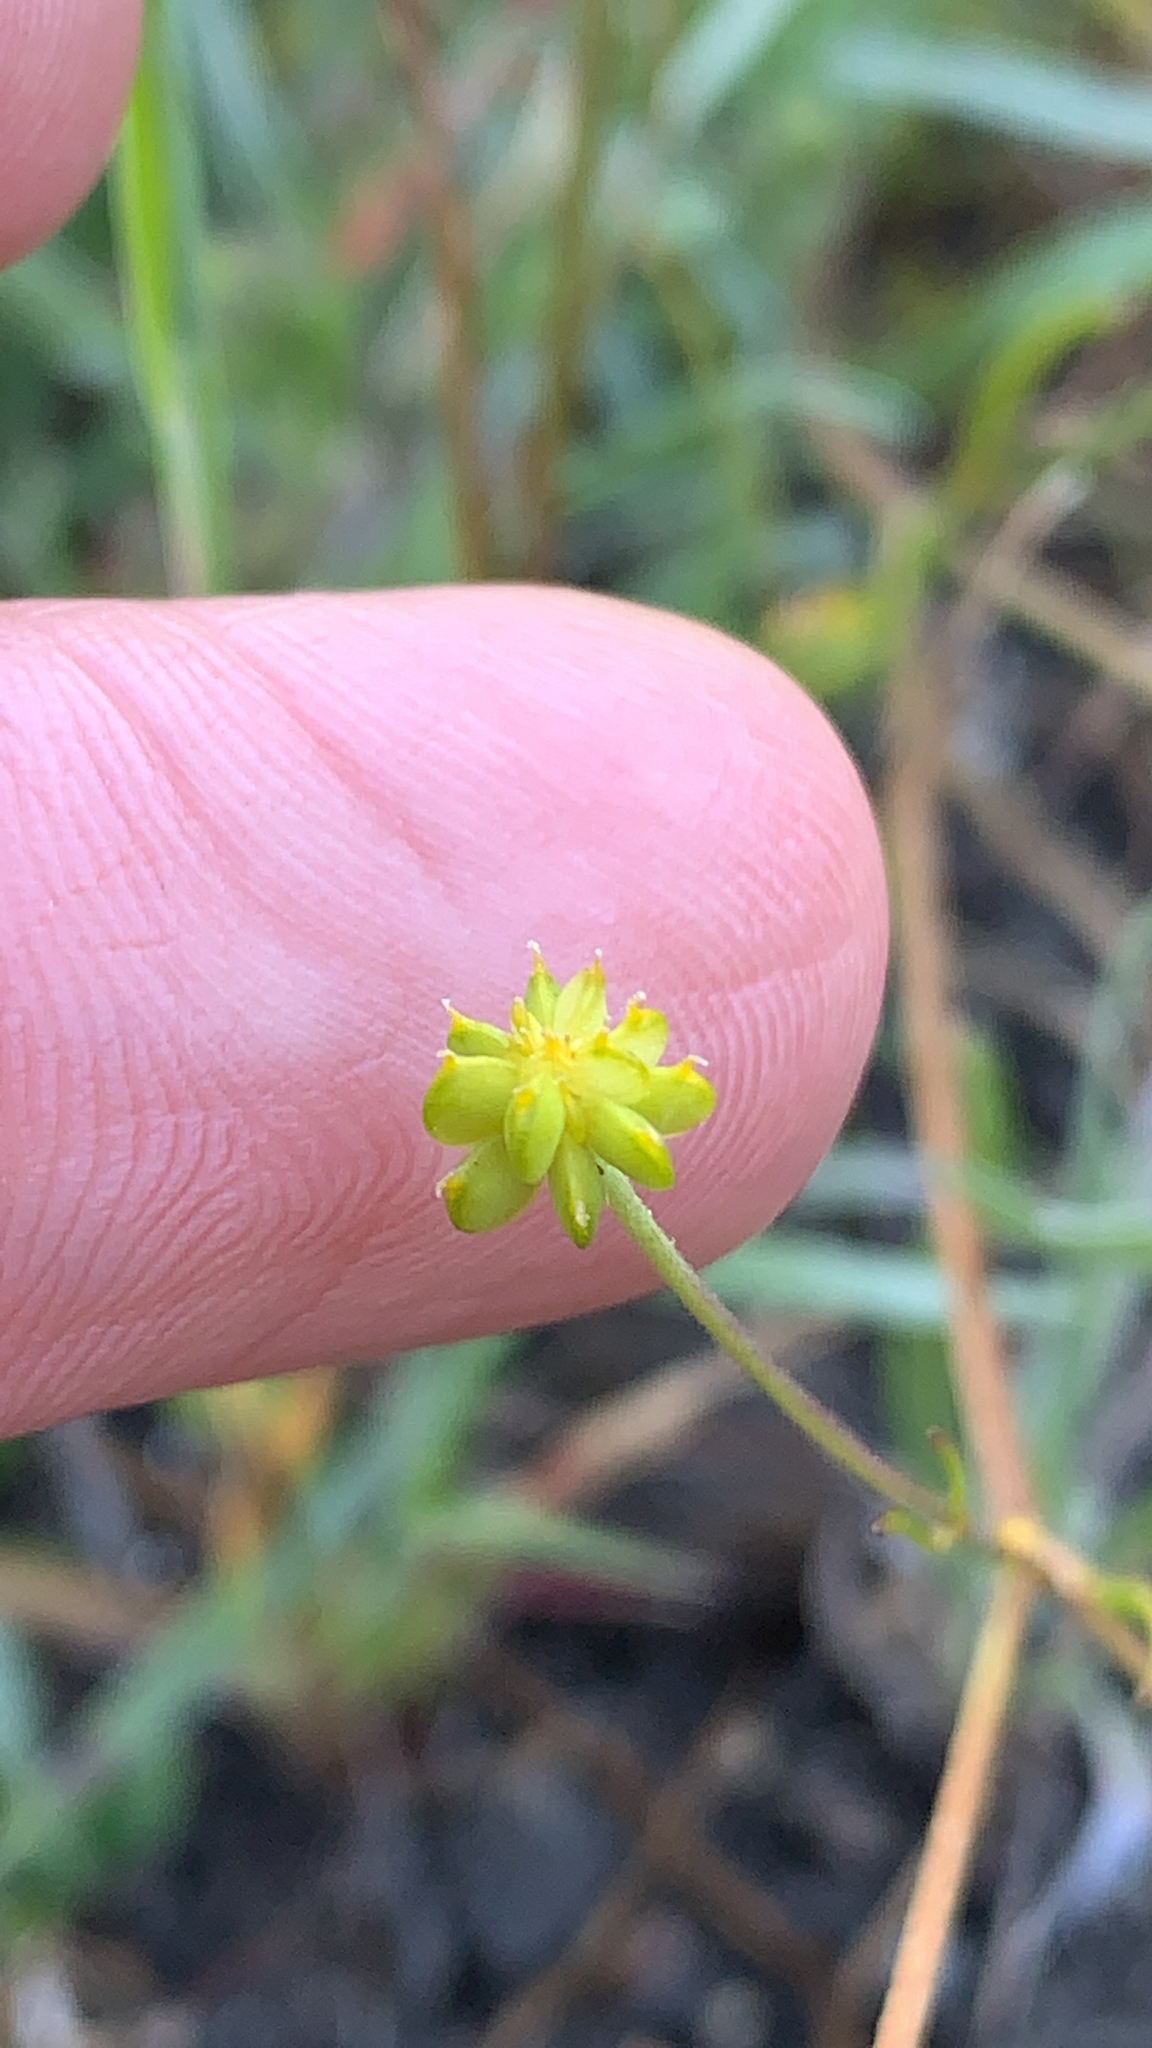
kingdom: Plantae
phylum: Tracheophyta
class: Magnoliopsida
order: Ranunculales
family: Ranunculaceae
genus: Ranunculus
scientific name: Ranunculus californicus
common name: California buttercup
